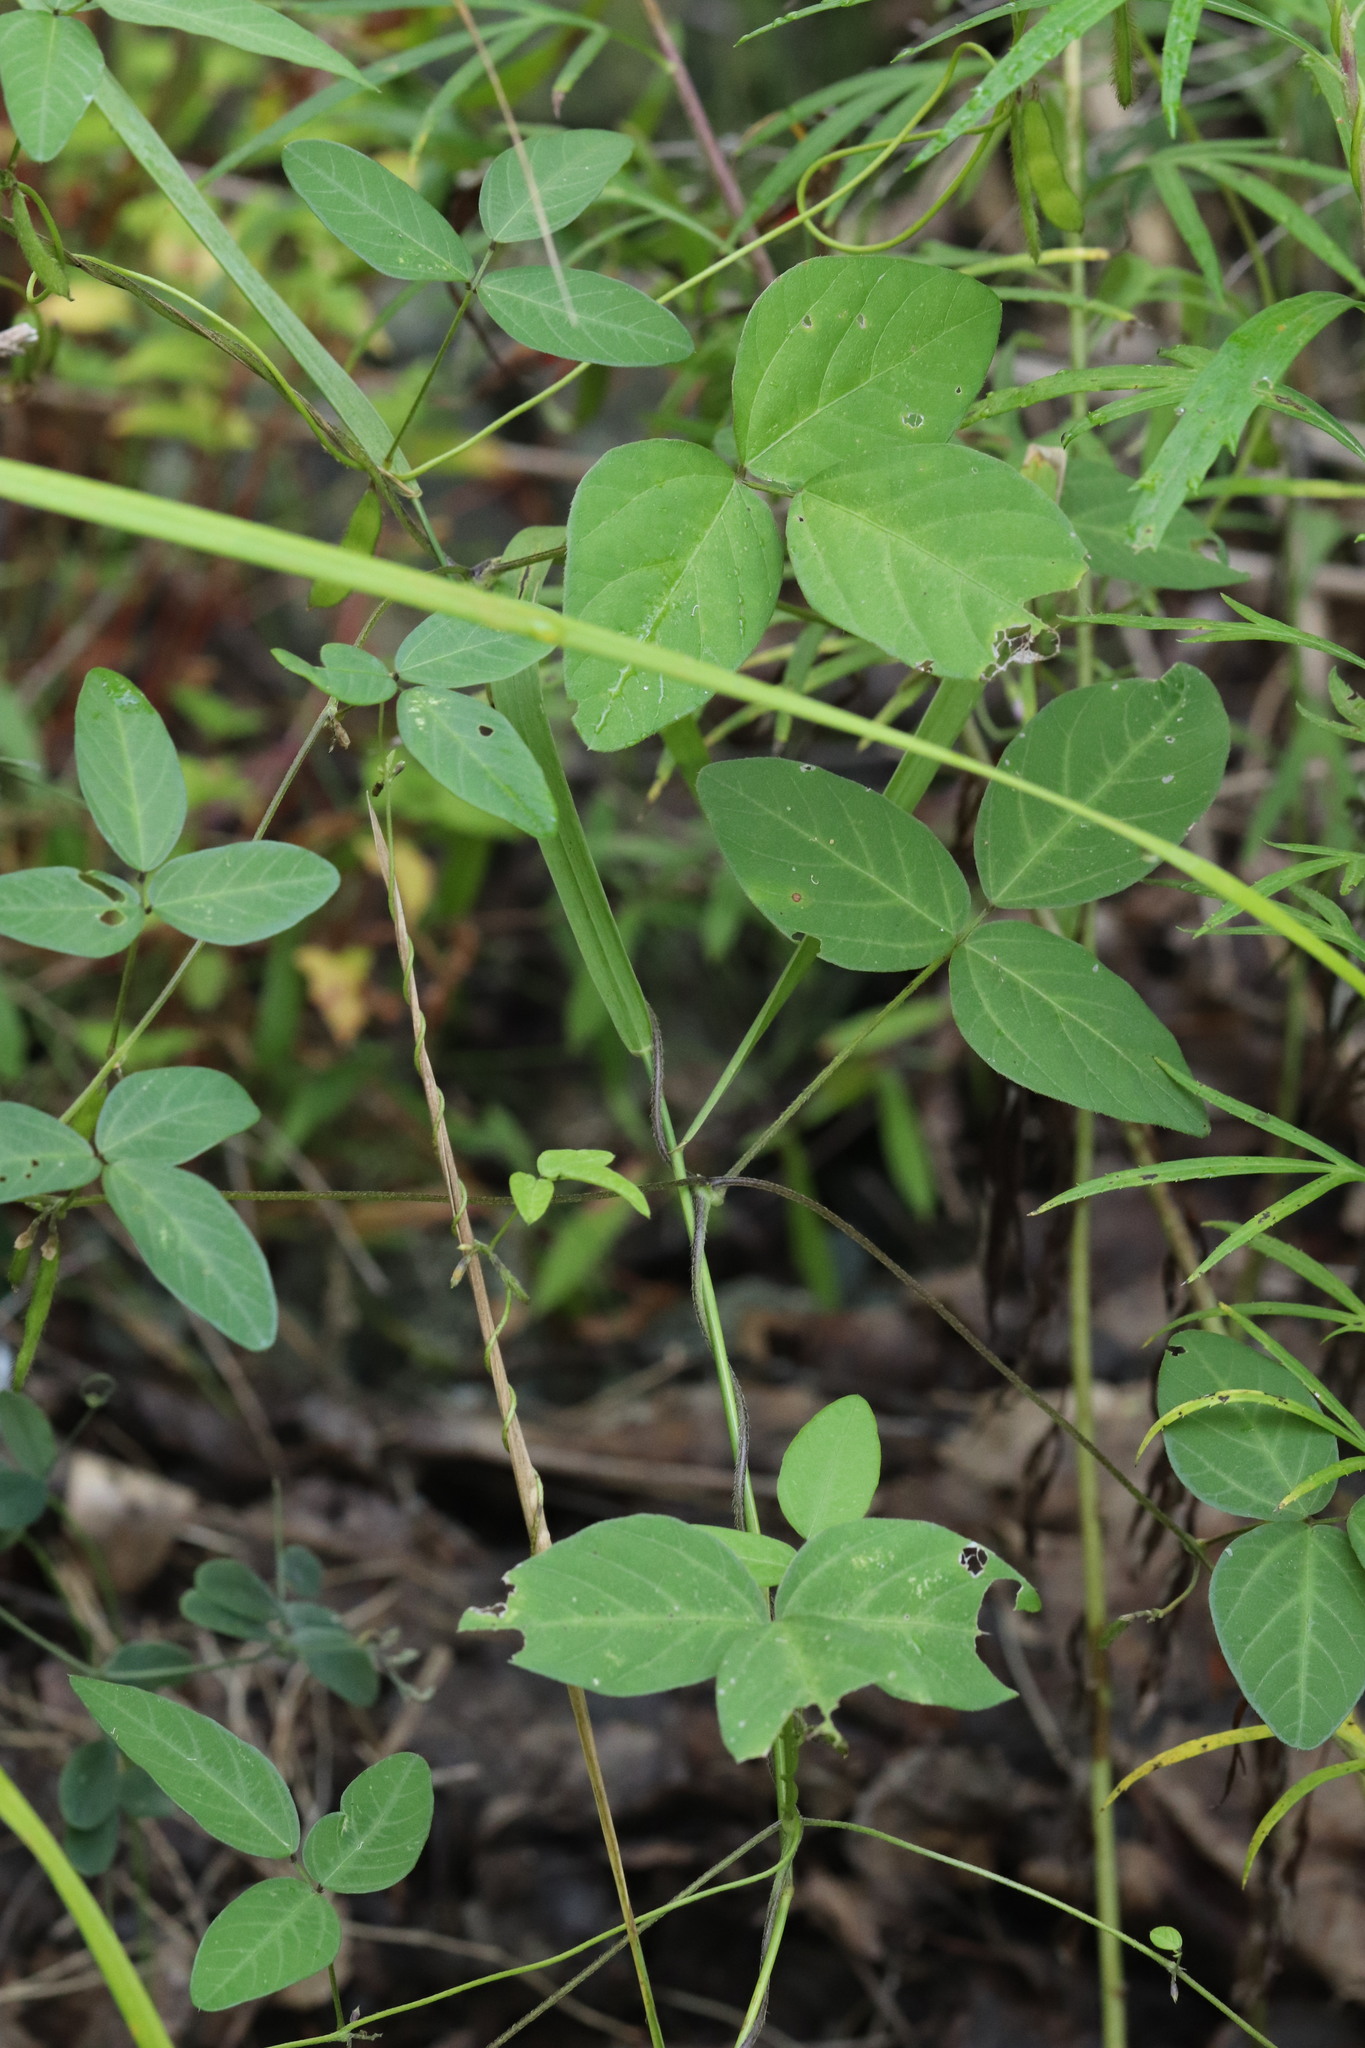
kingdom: Plantae
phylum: Tracheophyta
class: Magnoliopsida
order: Fabales
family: Fabaceae
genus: Glycine
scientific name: Glycine max
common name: Soya-bean
